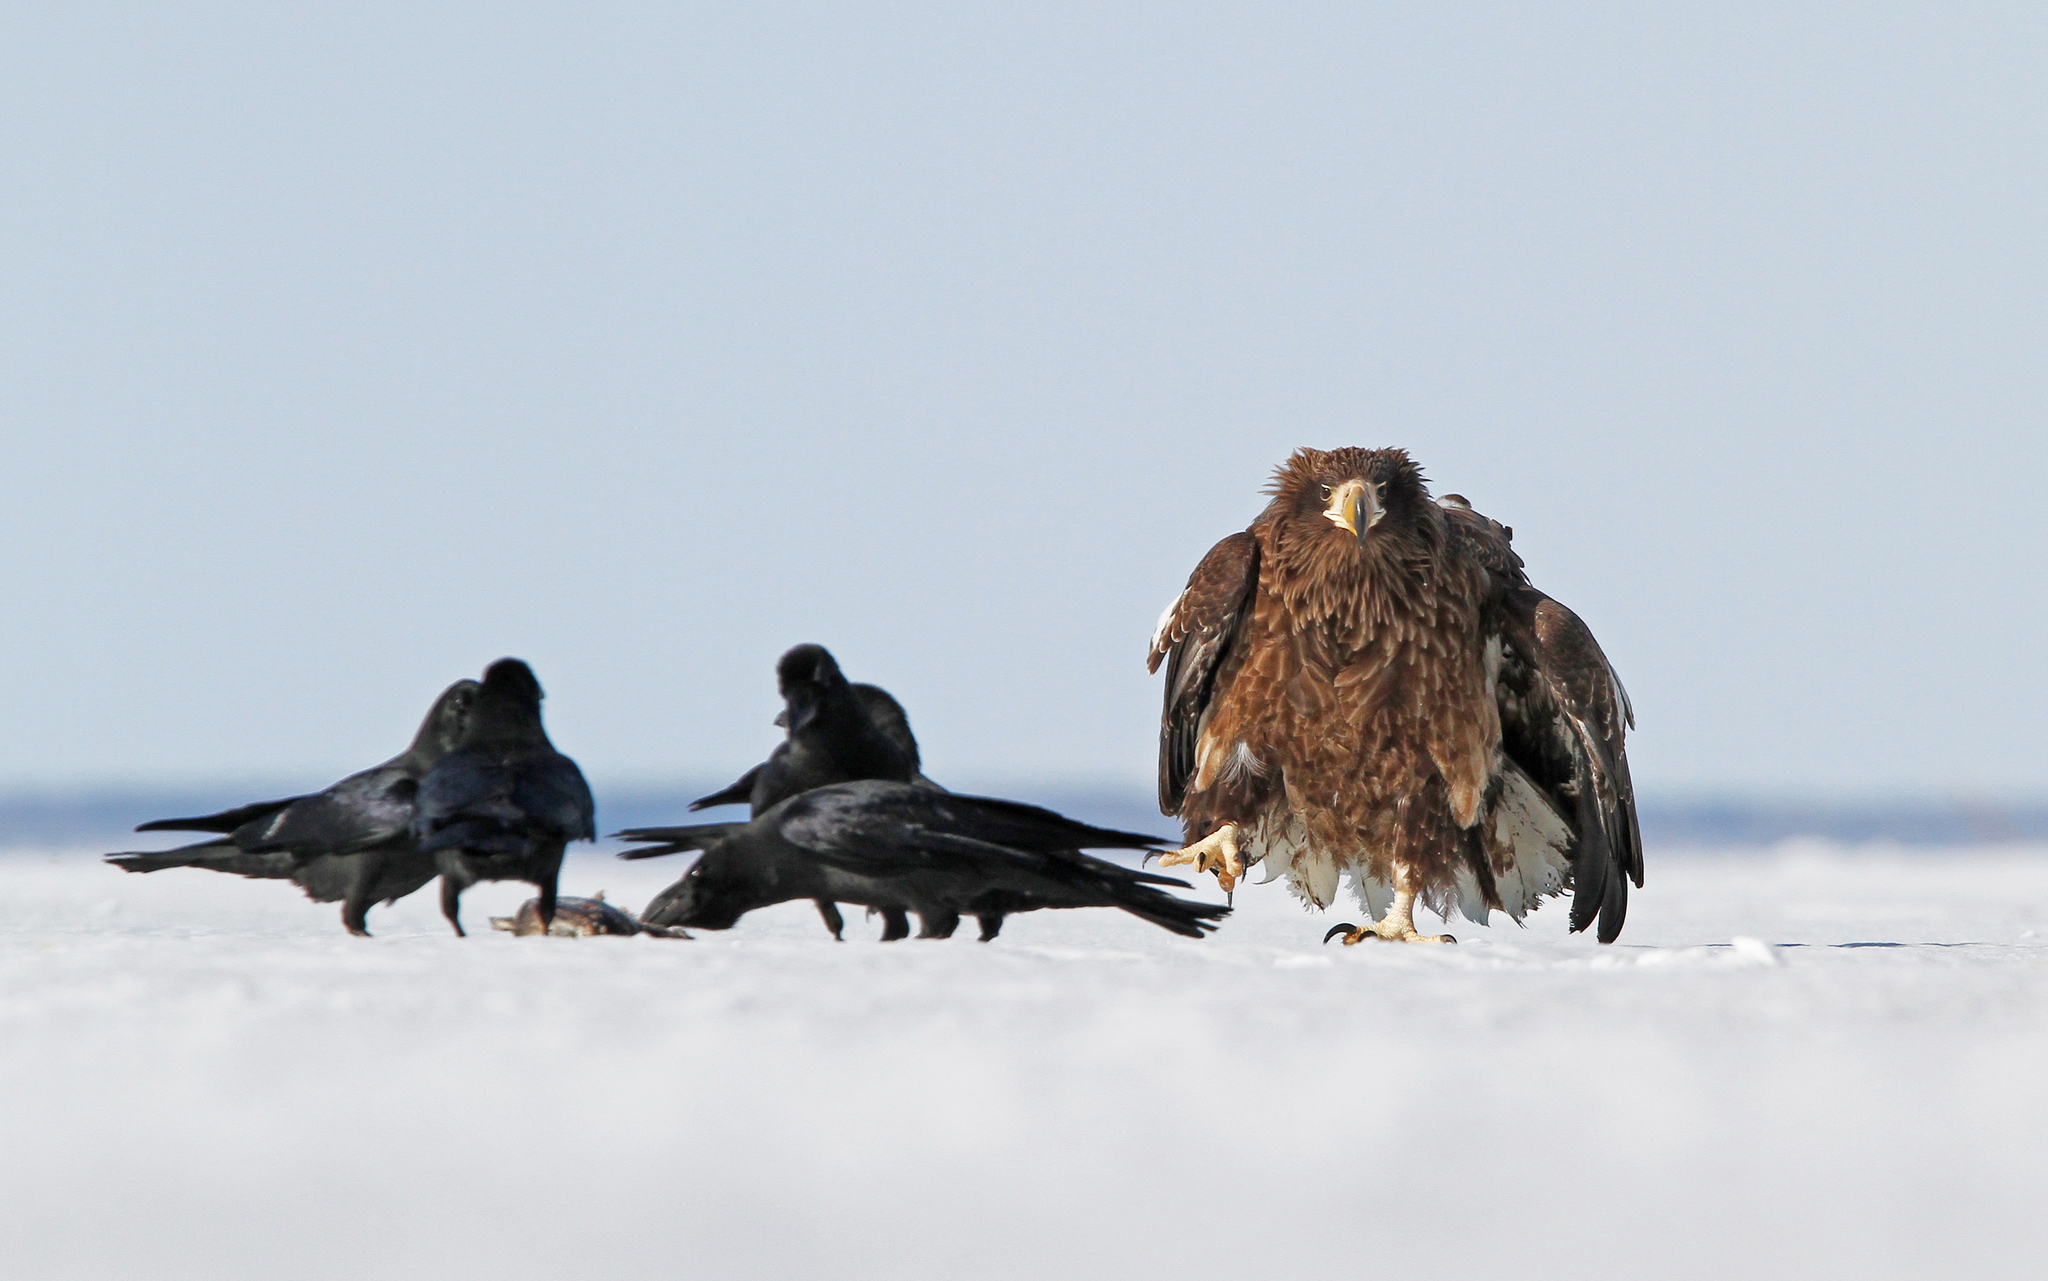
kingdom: Animalia
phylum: Chordata
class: Aves
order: Accipitriformes
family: Accipitridae
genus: Haliaeetus
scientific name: Haliaeetus pelagicus
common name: Steller's sea eagle
